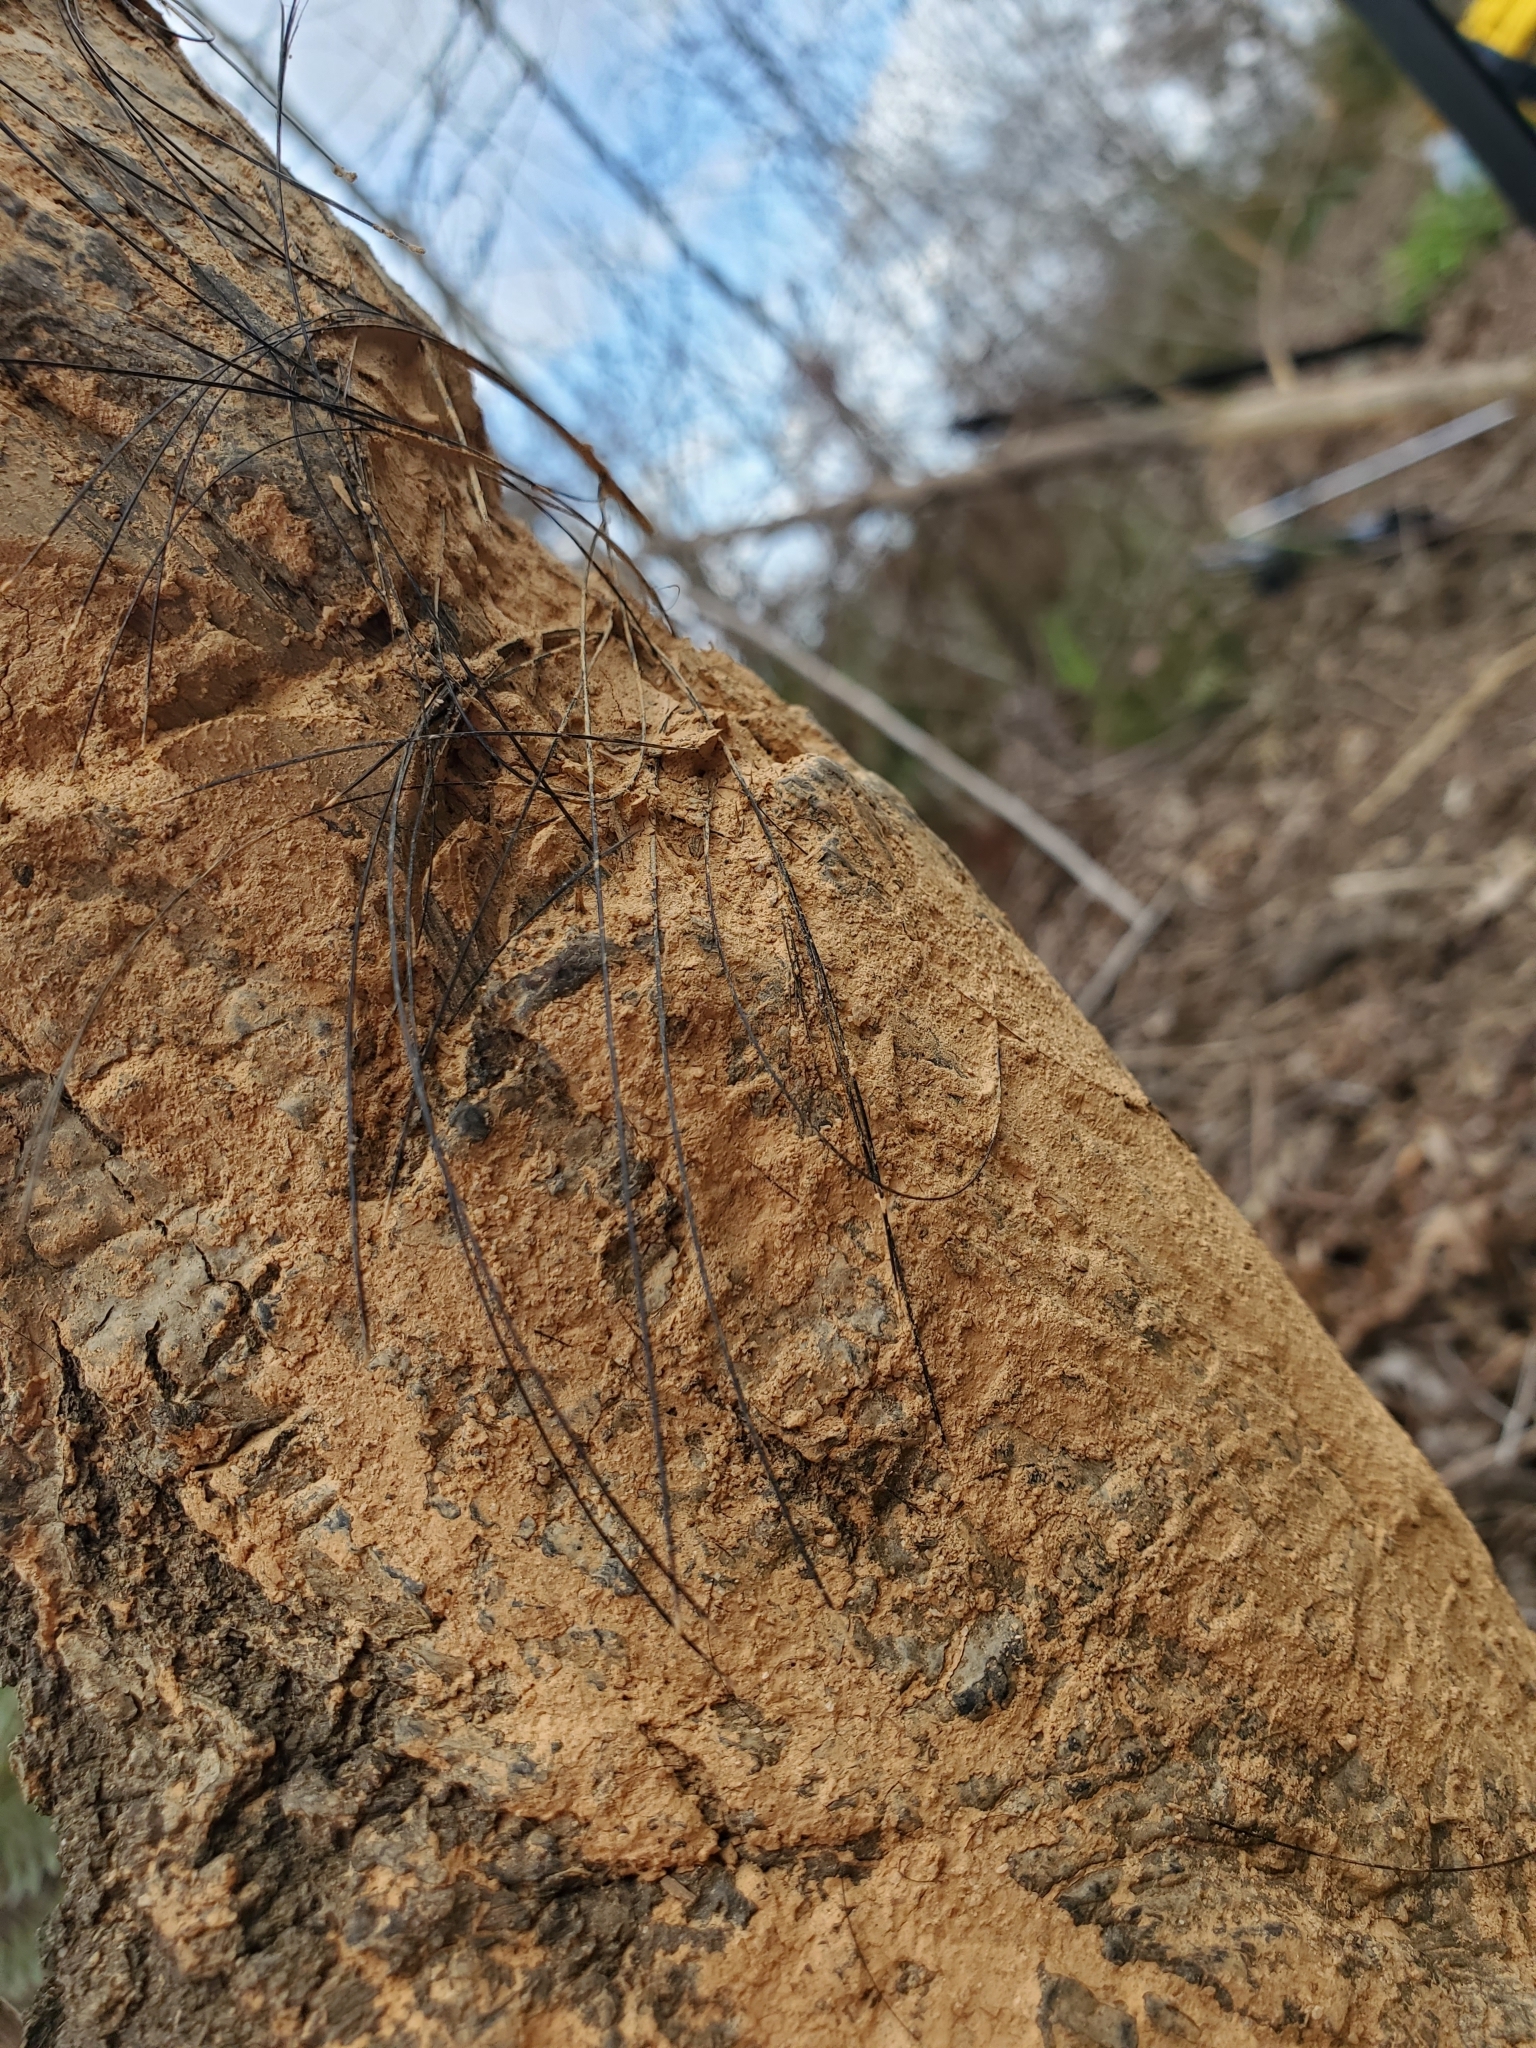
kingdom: Animalia
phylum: Chordata
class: Mammalia
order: Artiodactyla
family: Suidae
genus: Sus
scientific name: Sus scrofa
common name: Wild boar
